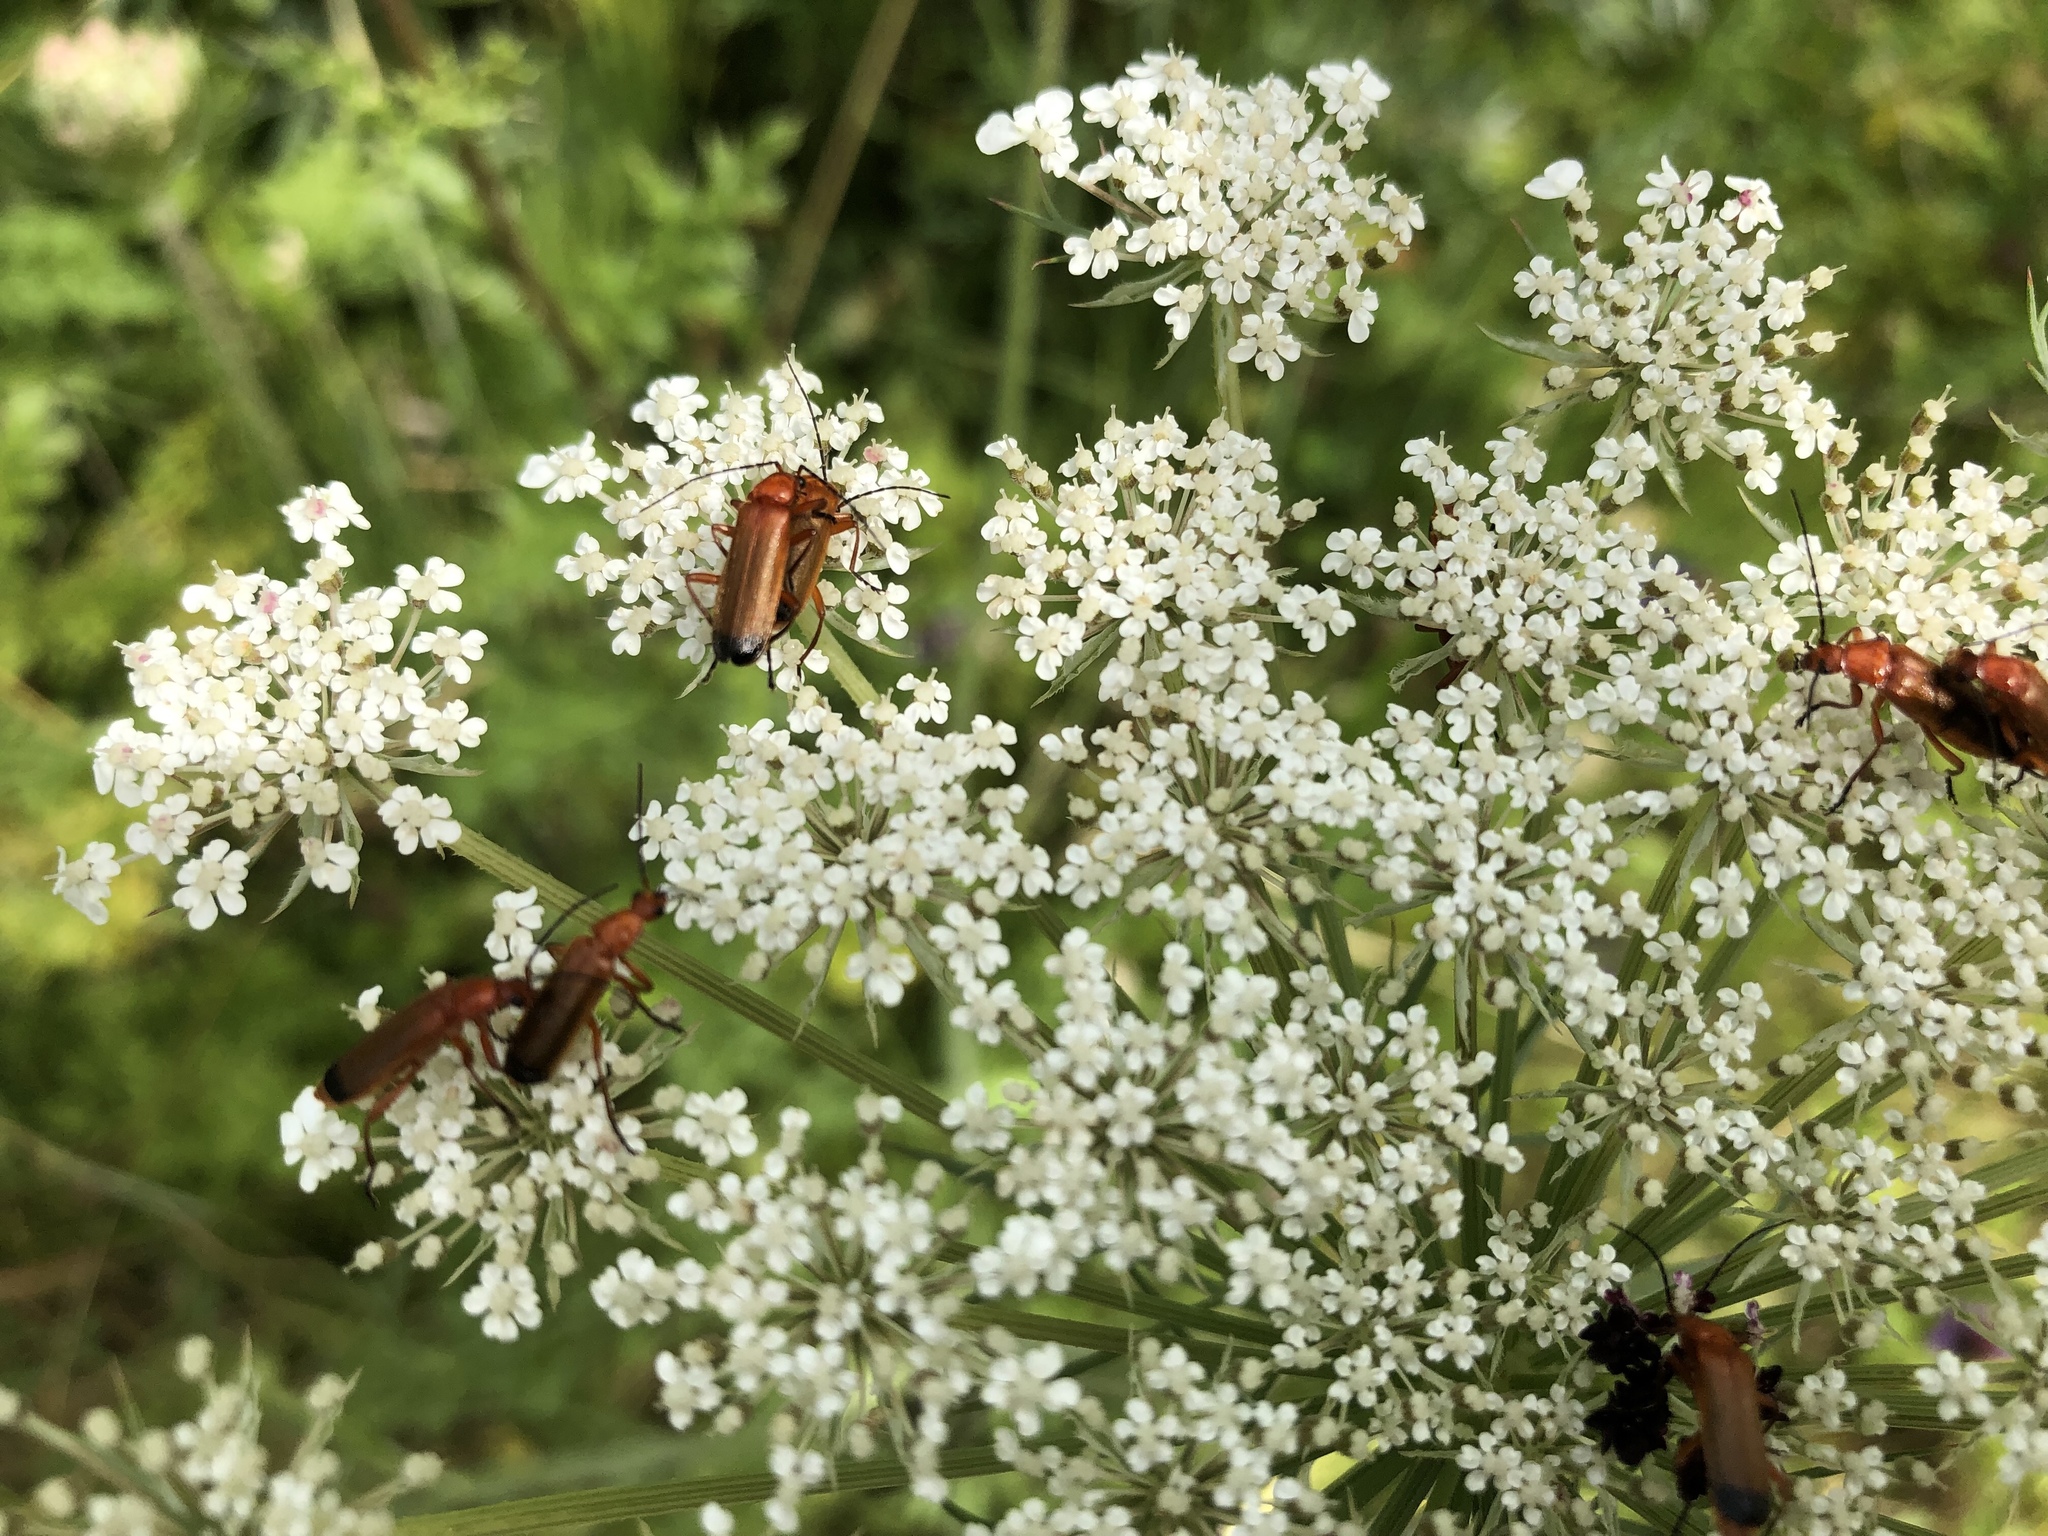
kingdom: Animalia
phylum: Arthropoda
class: Insecta
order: Coleoptera
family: Cantharidae
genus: Rhagonycha
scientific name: Rhagonycha fulva
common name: Common red soldier beetle
